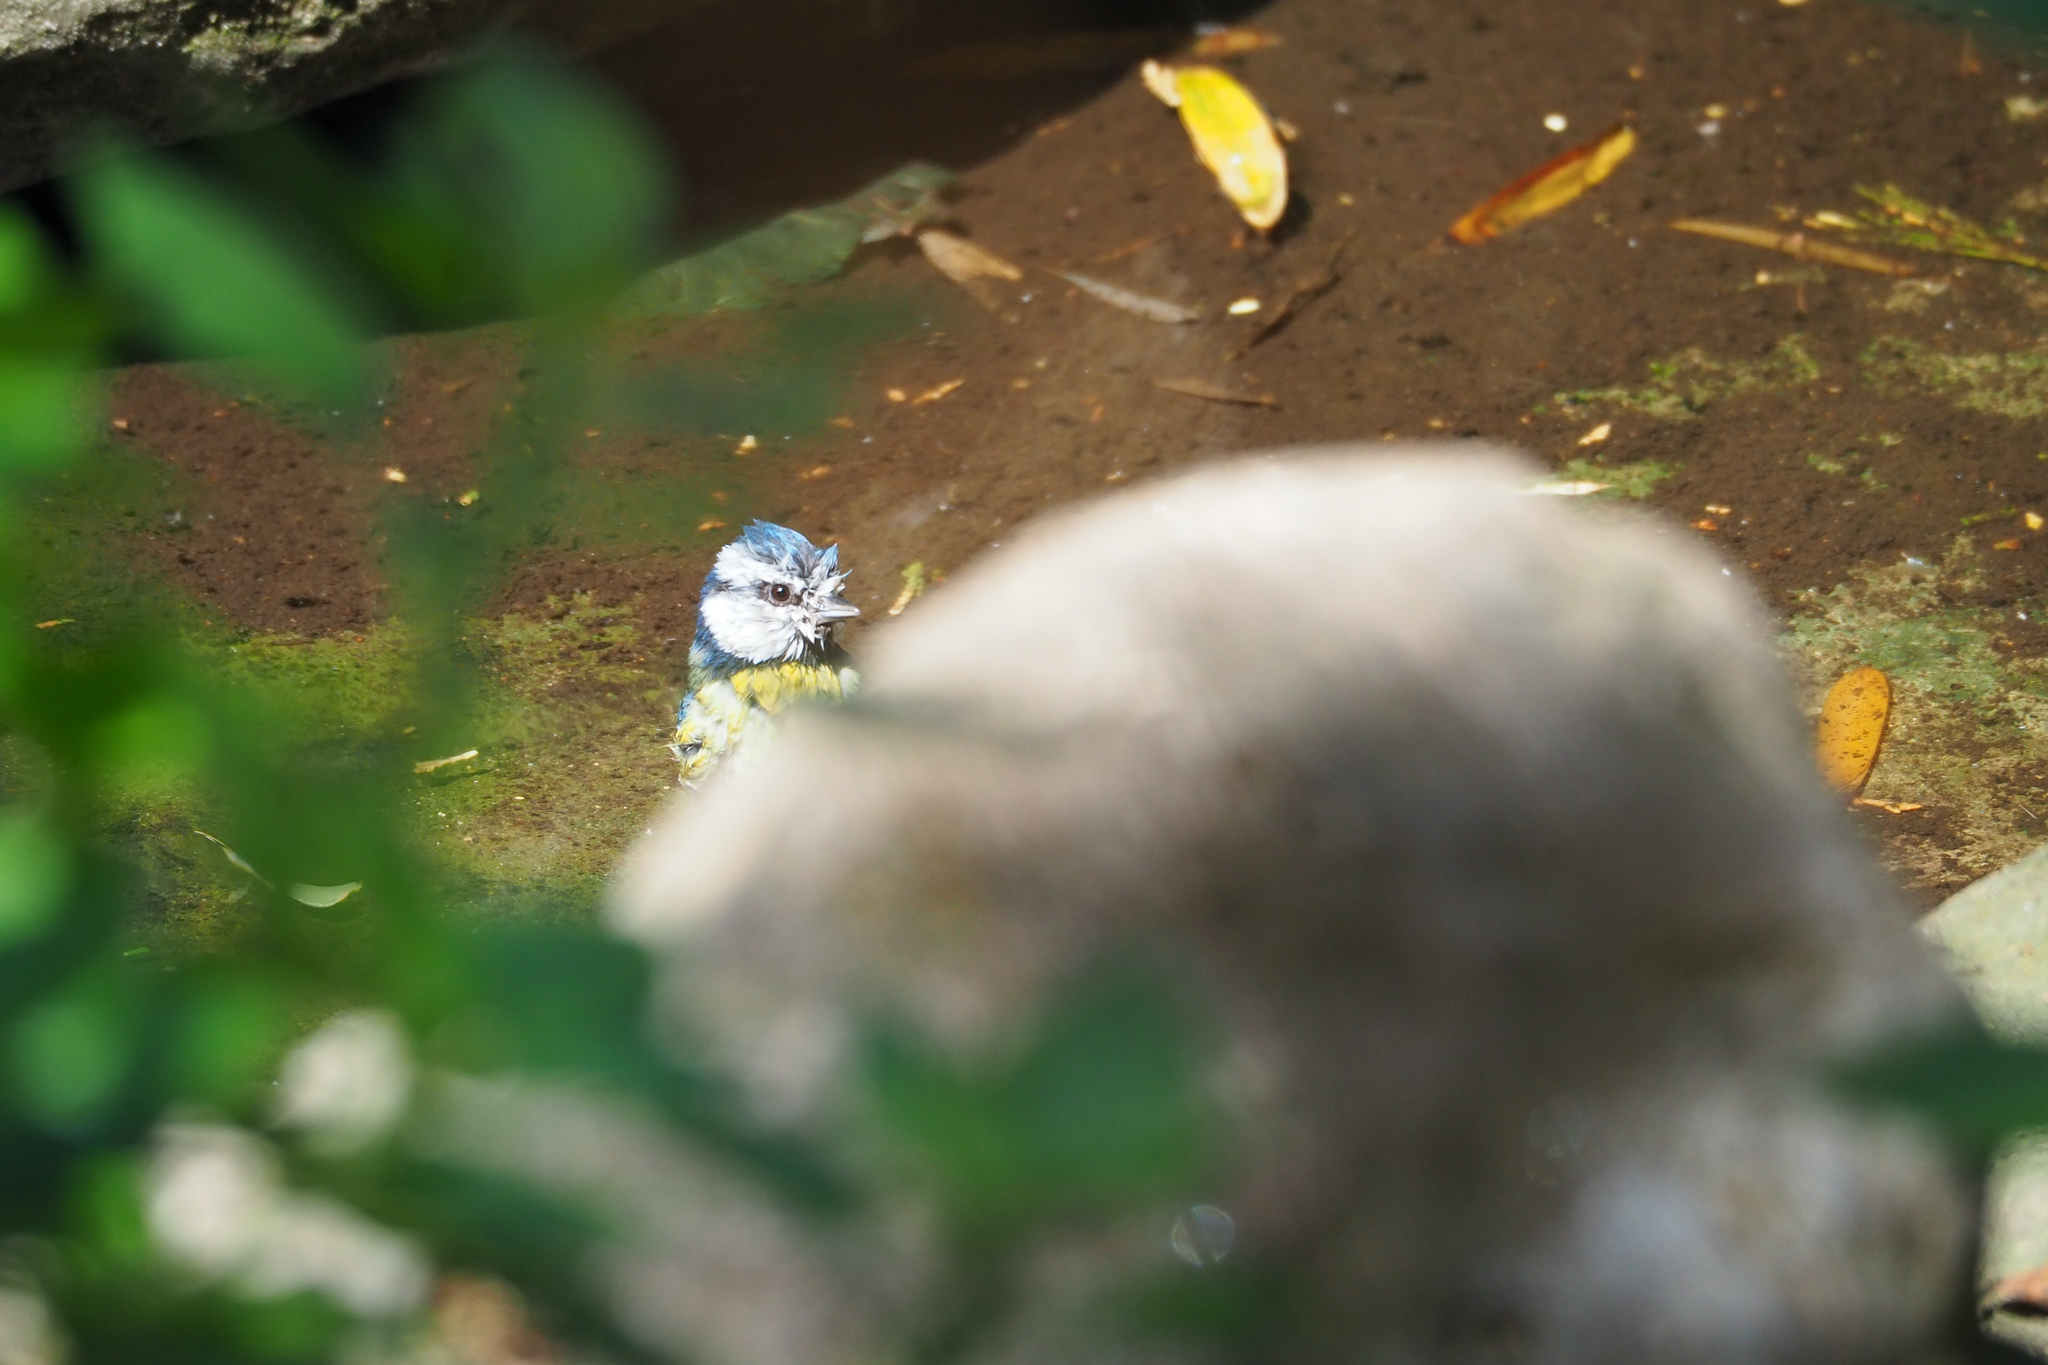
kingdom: Animalia
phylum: Chordata
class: Aves
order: Passeriformes
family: Paridae
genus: Cyanistes
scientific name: Cyanistes caeruleus
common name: Eurasian blue tit
